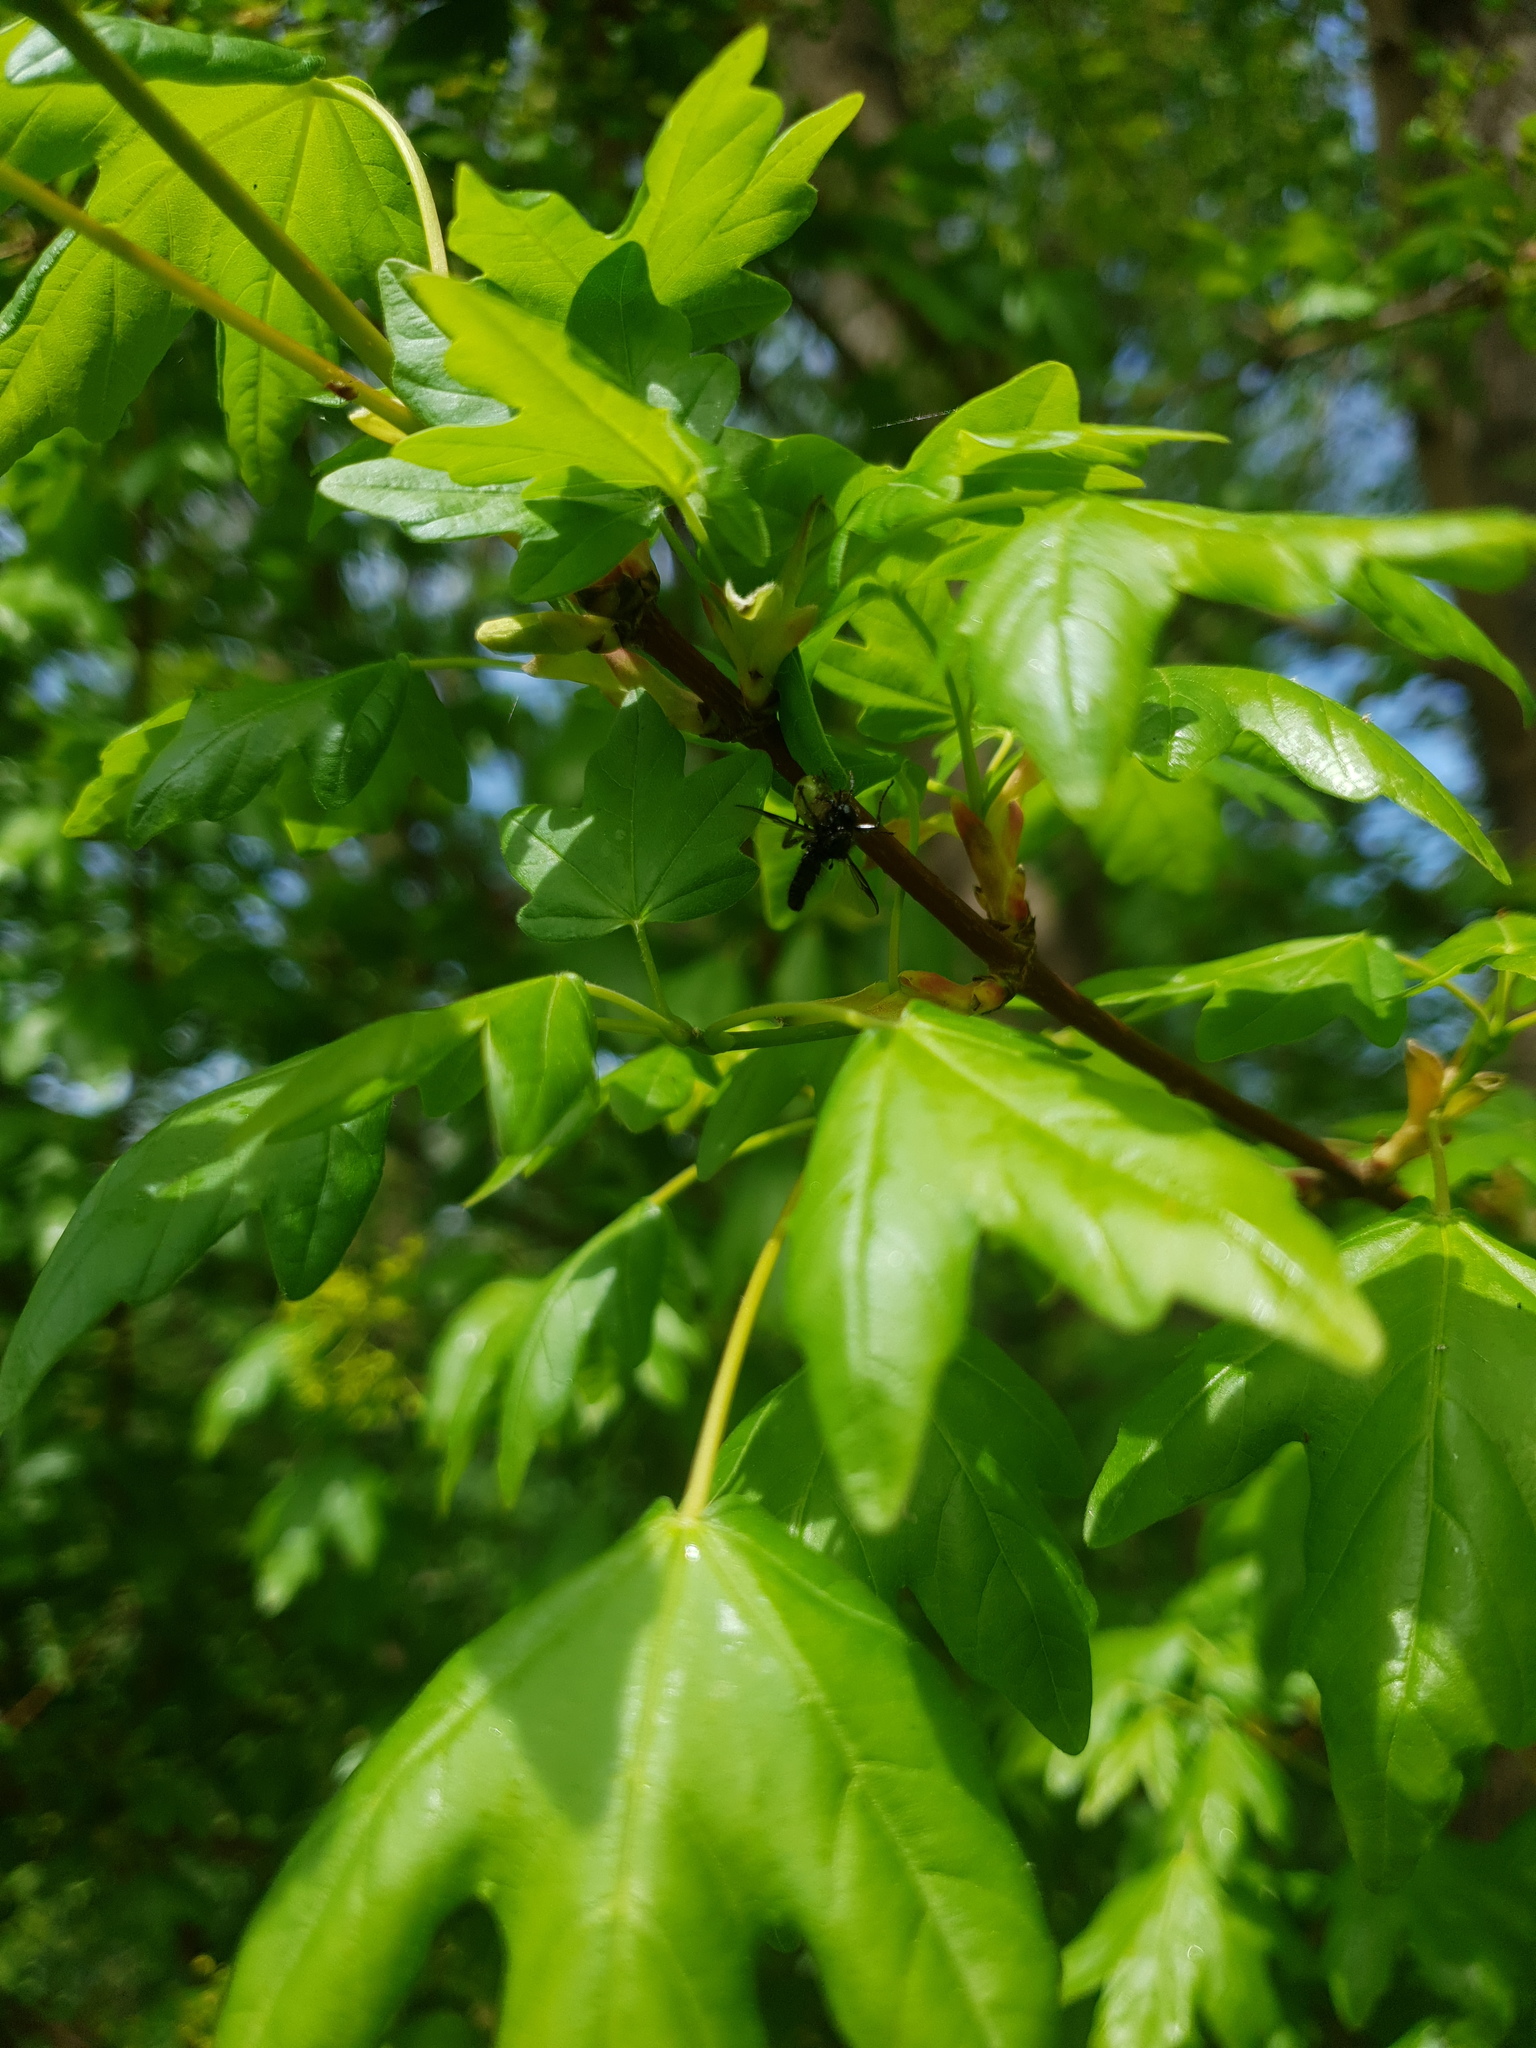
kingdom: Animalia
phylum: Arthropoda
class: Arachnida
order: Araneae
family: Araneidae
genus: Araniella
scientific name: Araniella
